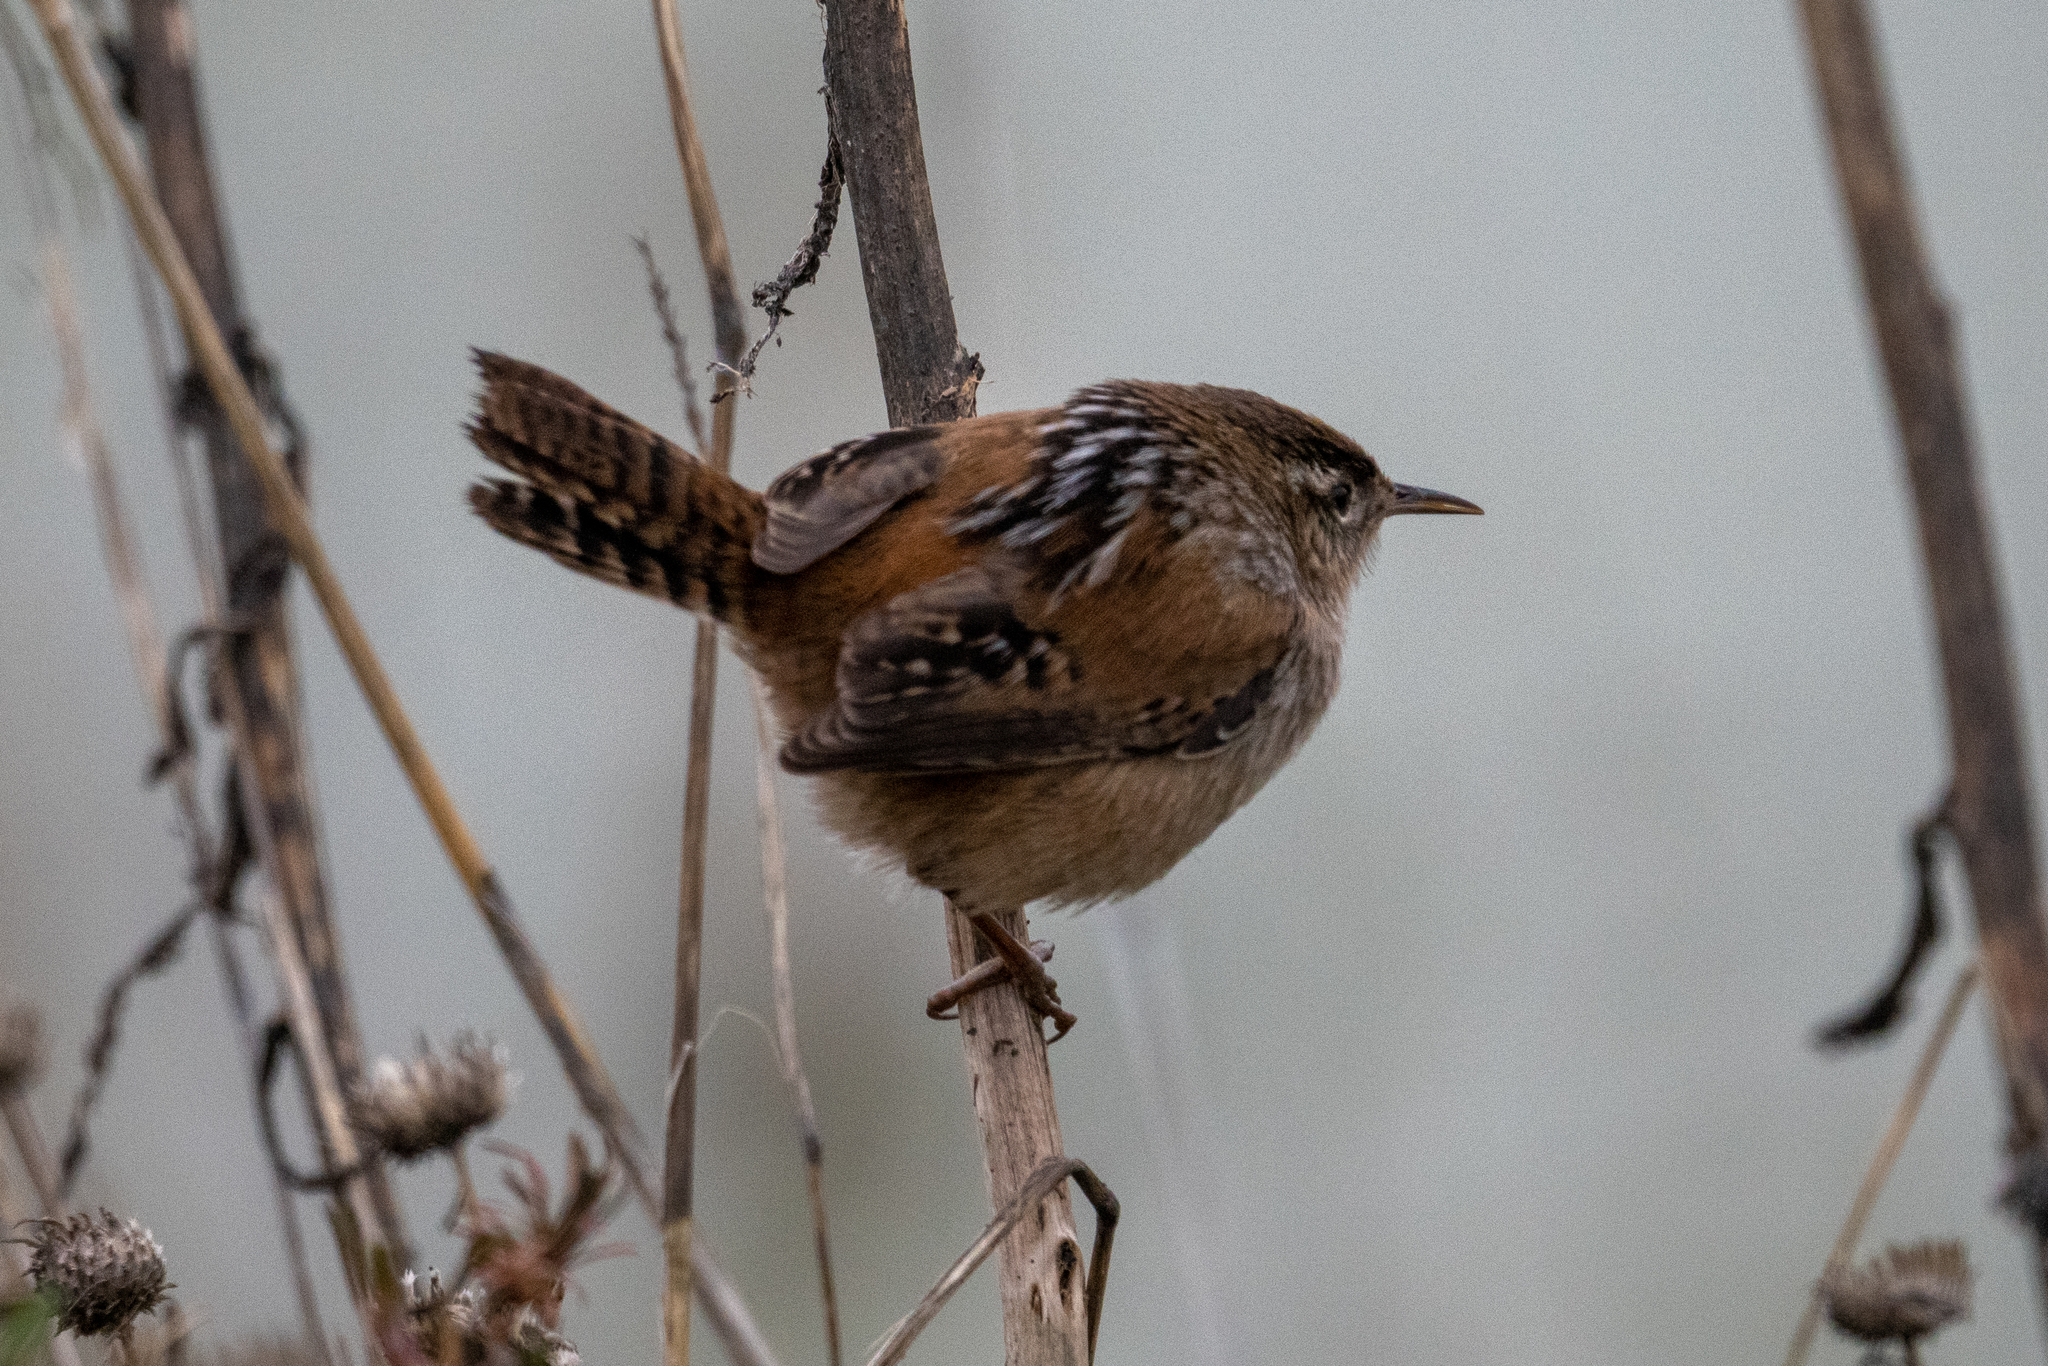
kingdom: Animalia
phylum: Chordata
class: Aves
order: Passeriformes
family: Troglodytidae
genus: Cistothorus
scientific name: Cistothorus palustris
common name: Marsh wren
